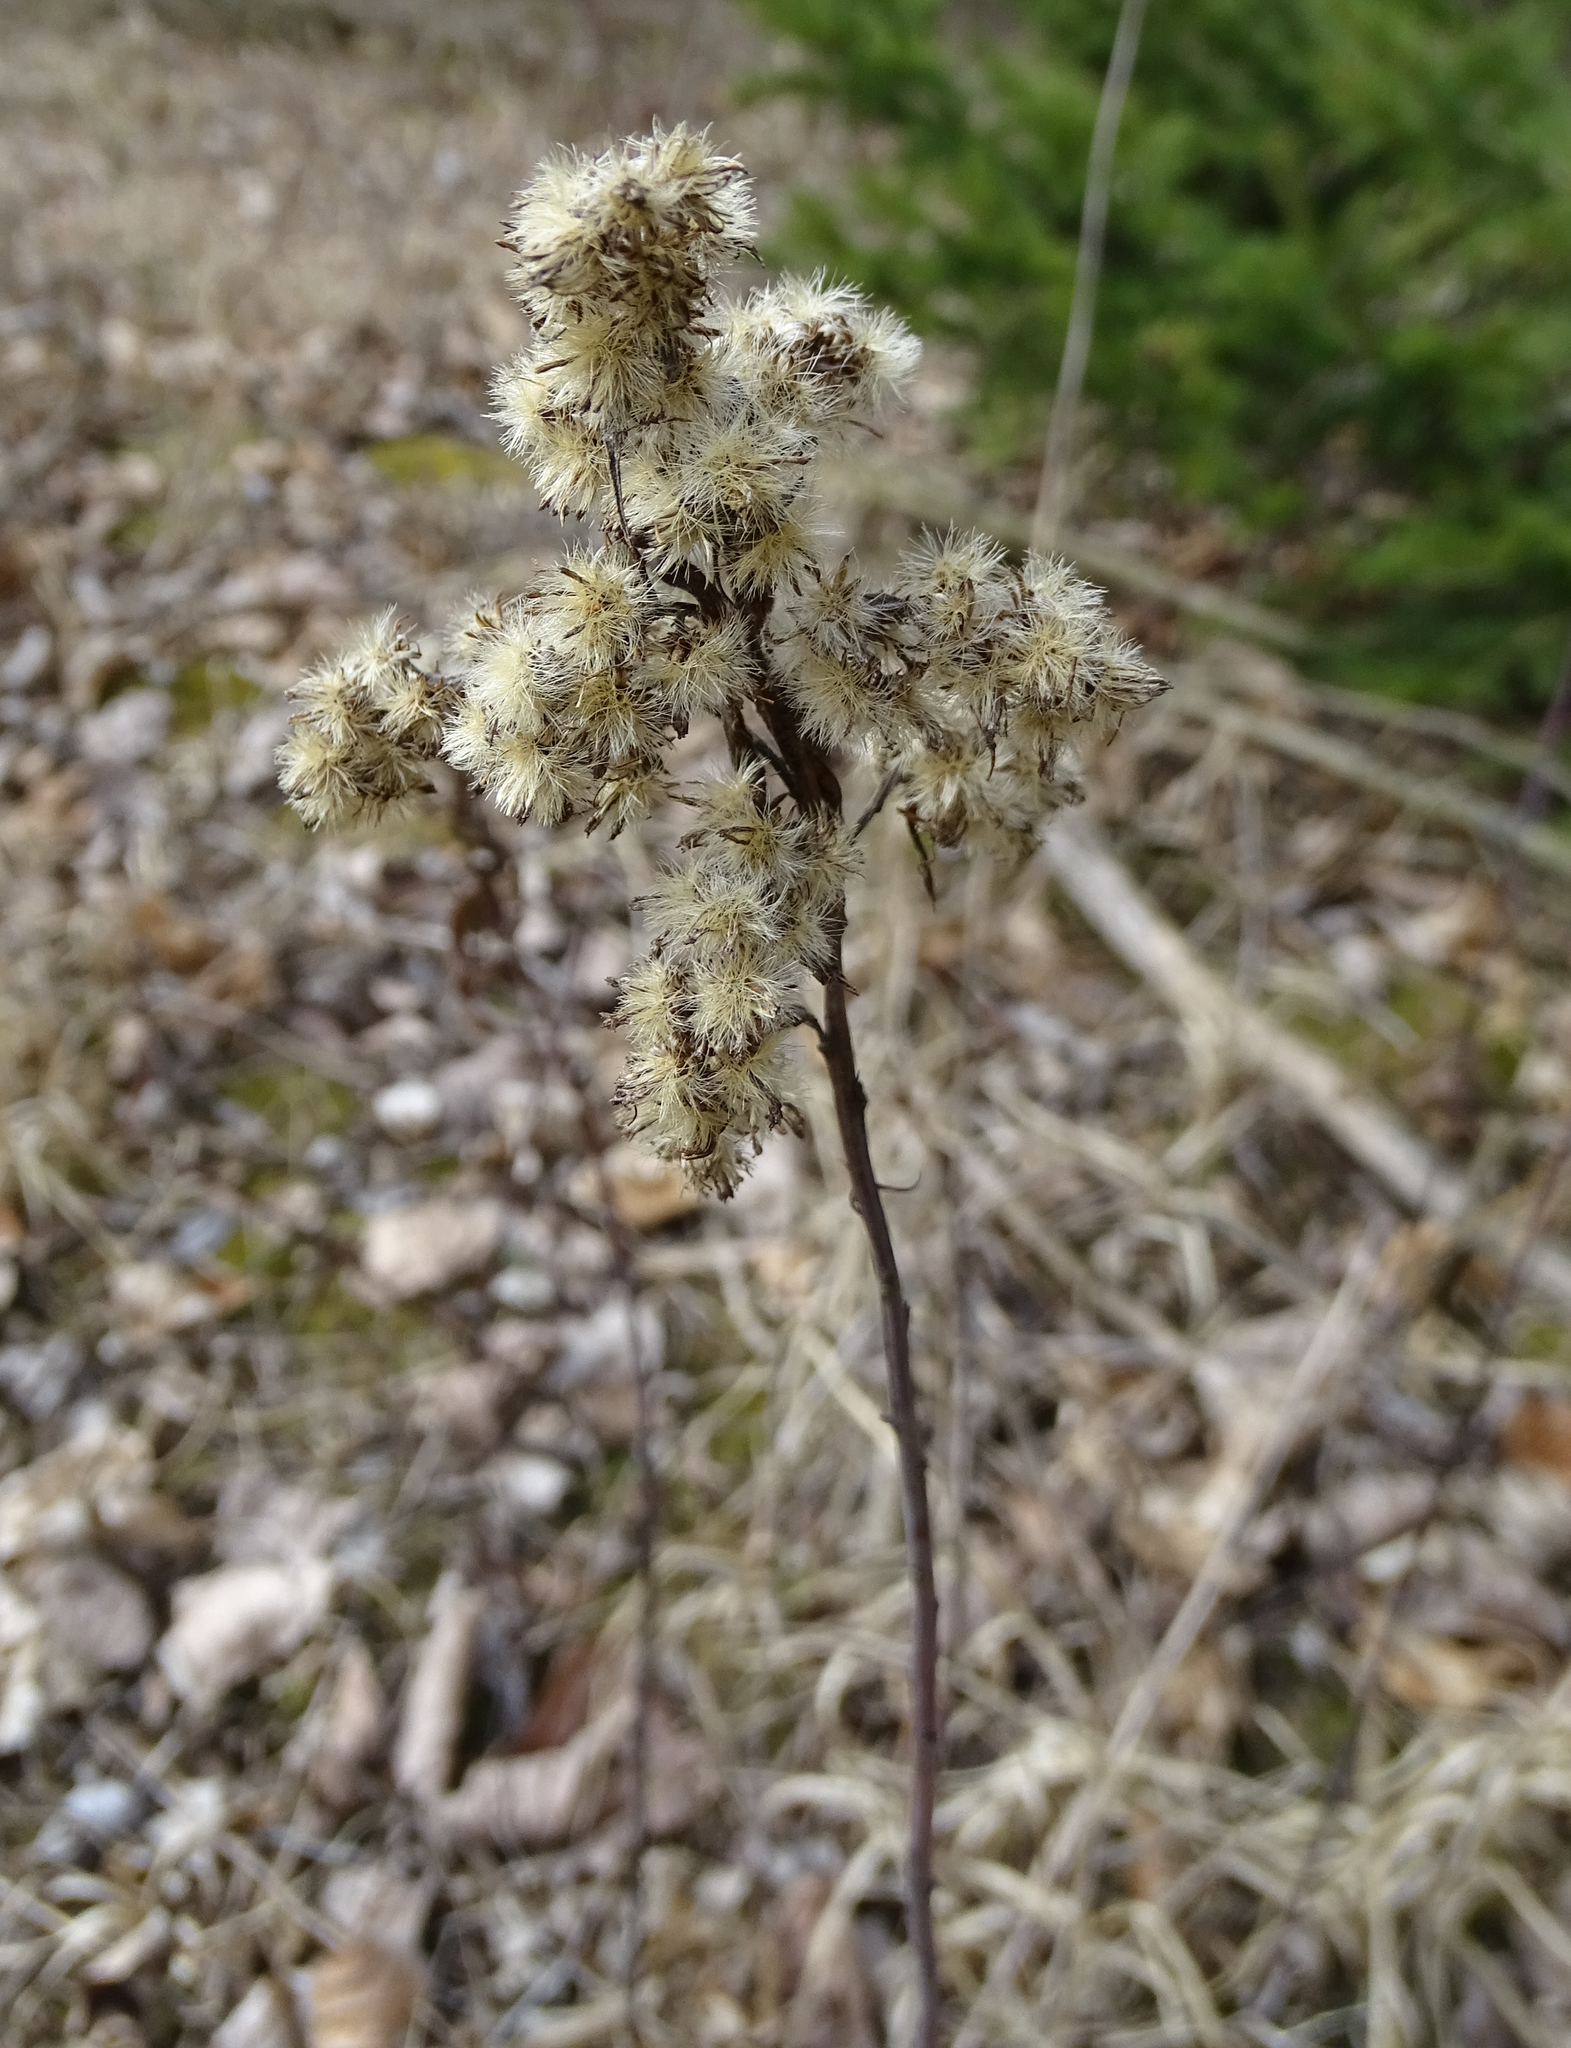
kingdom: Plantae
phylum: Tracheophyta
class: Magnoliopsida
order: Asterales
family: Asteraceae
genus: Solidago
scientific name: Solidago gigantea
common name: Giant goldenrod
